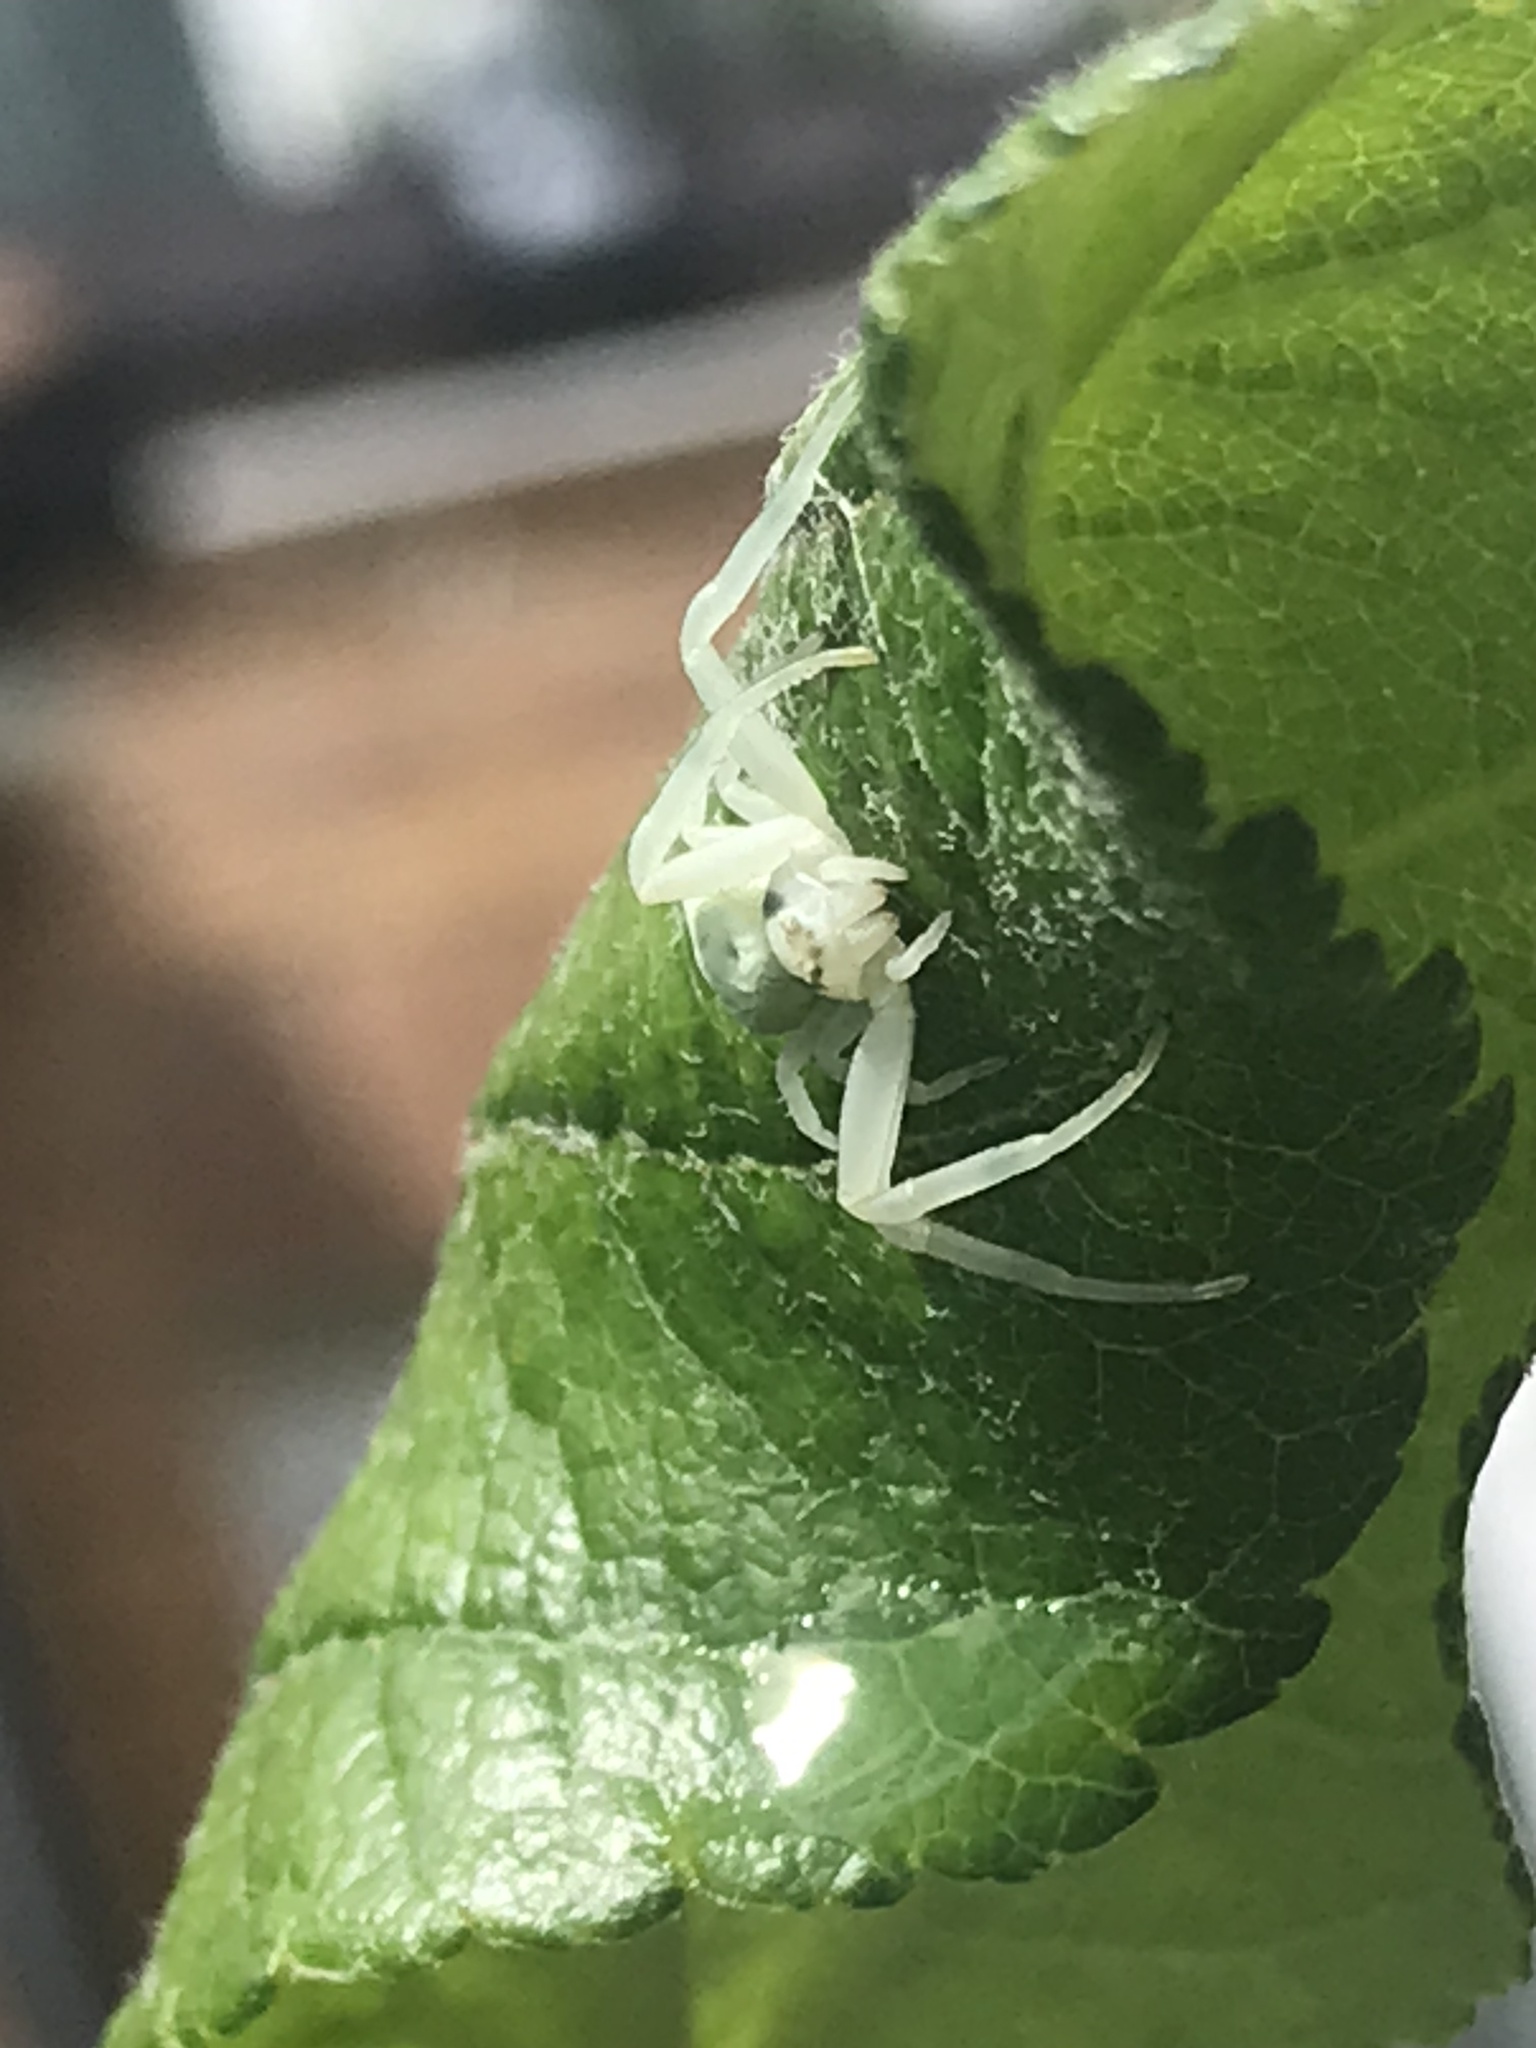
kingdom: Animalia
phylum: Arthropoda
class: Arachnida
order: Araneae
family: Thomisidae
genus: Misumena
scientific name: Misumena vatia
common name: Goldenrod crab spider
